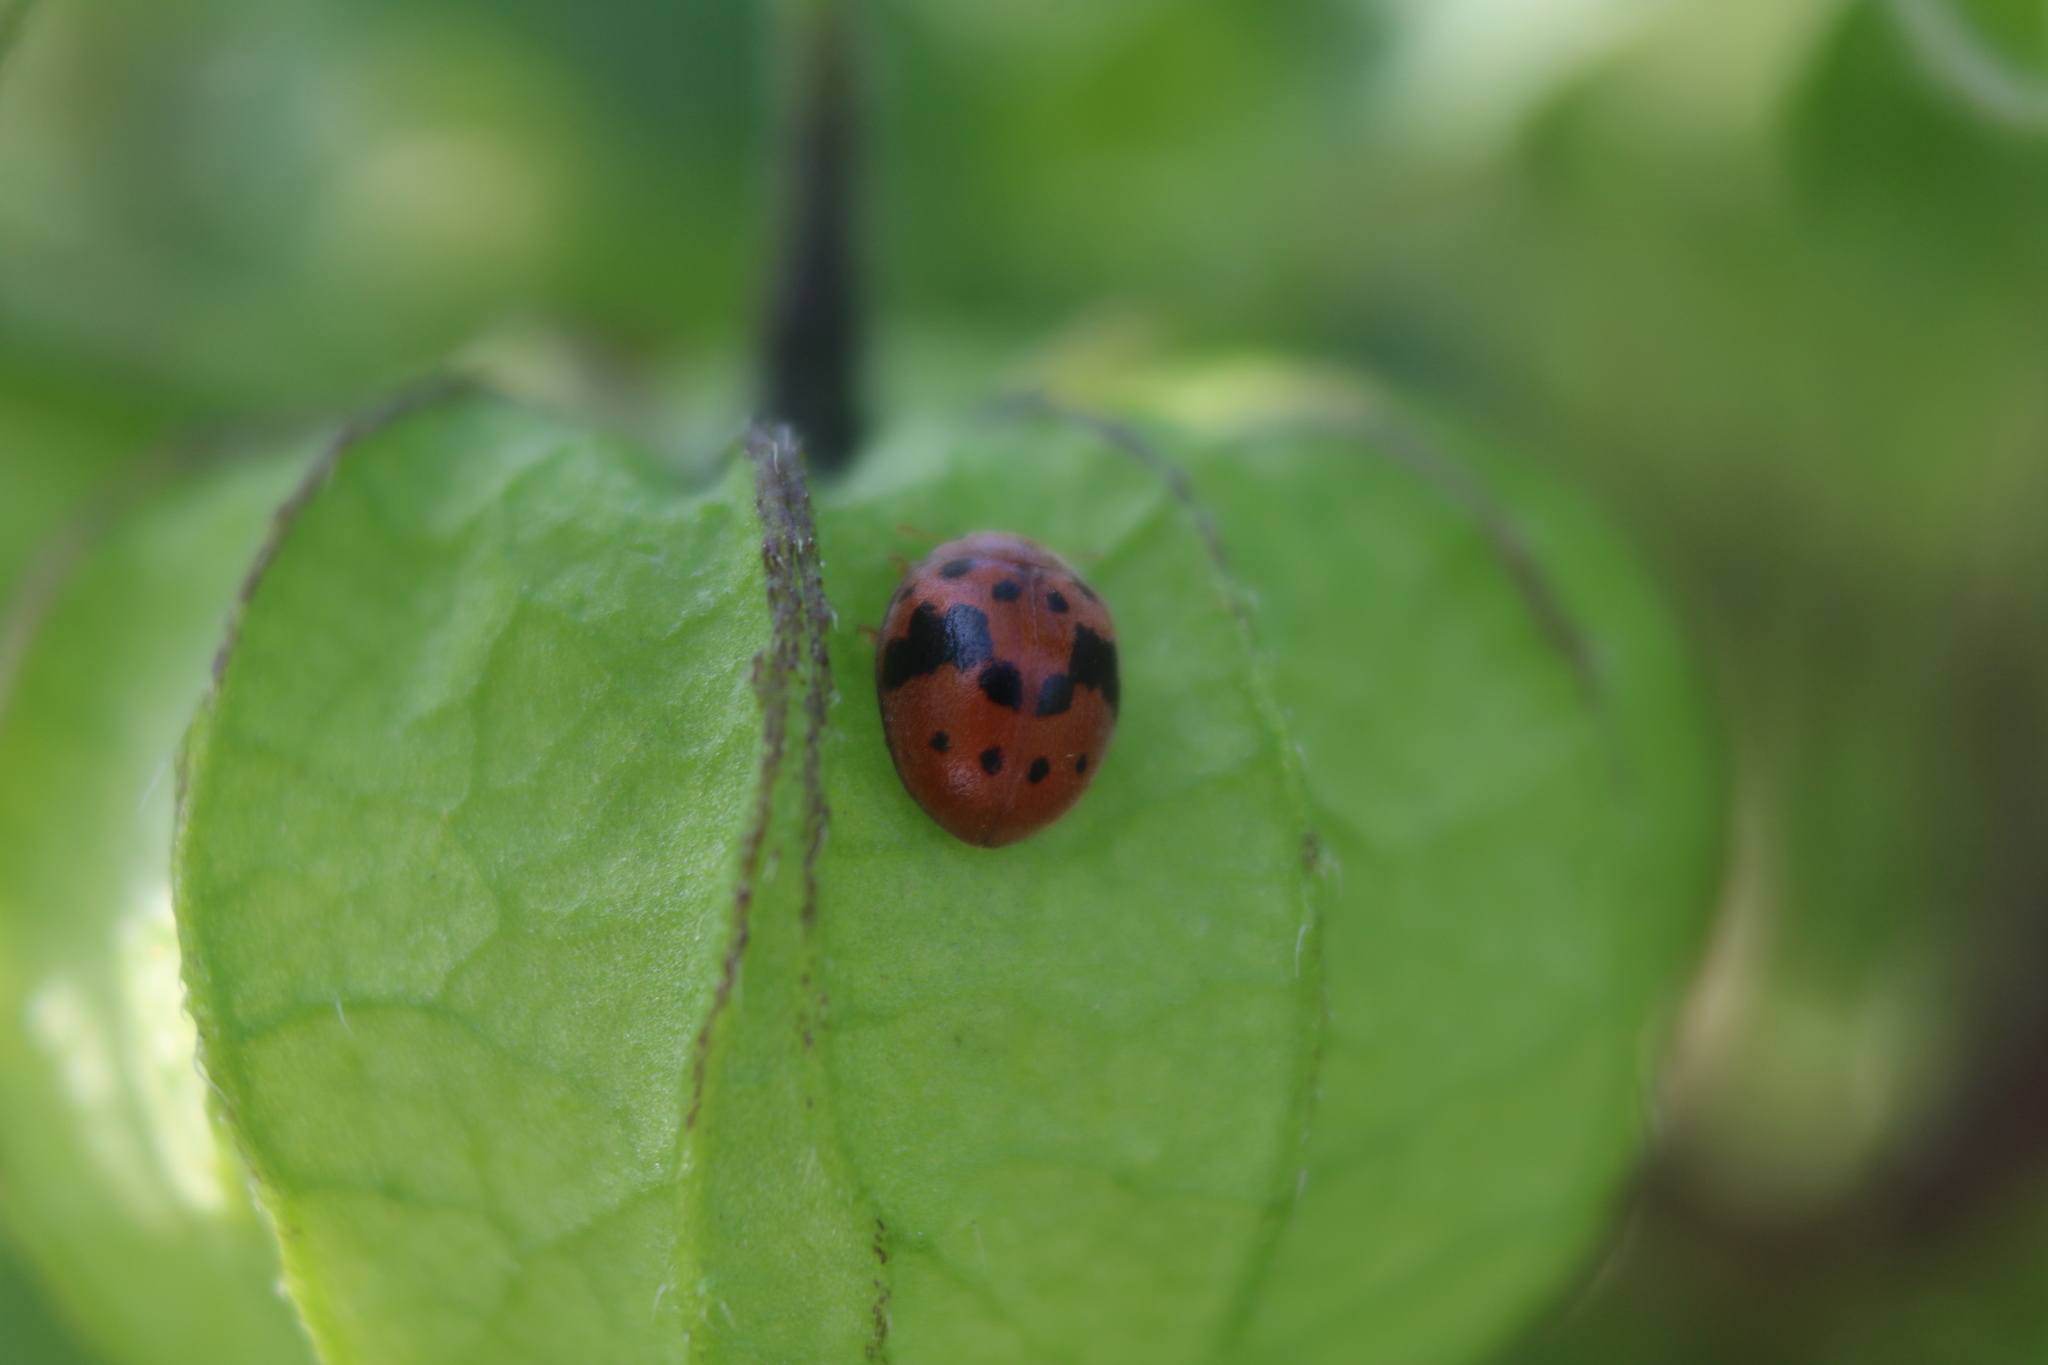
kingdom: Animalia
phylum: Arthropoda
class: Insecta
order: Coleoptera
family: Coccinellidae
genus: Subcoccinella
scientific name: Subcoccinella vigintiquatuorpunctata
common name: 24-spot ladybird
